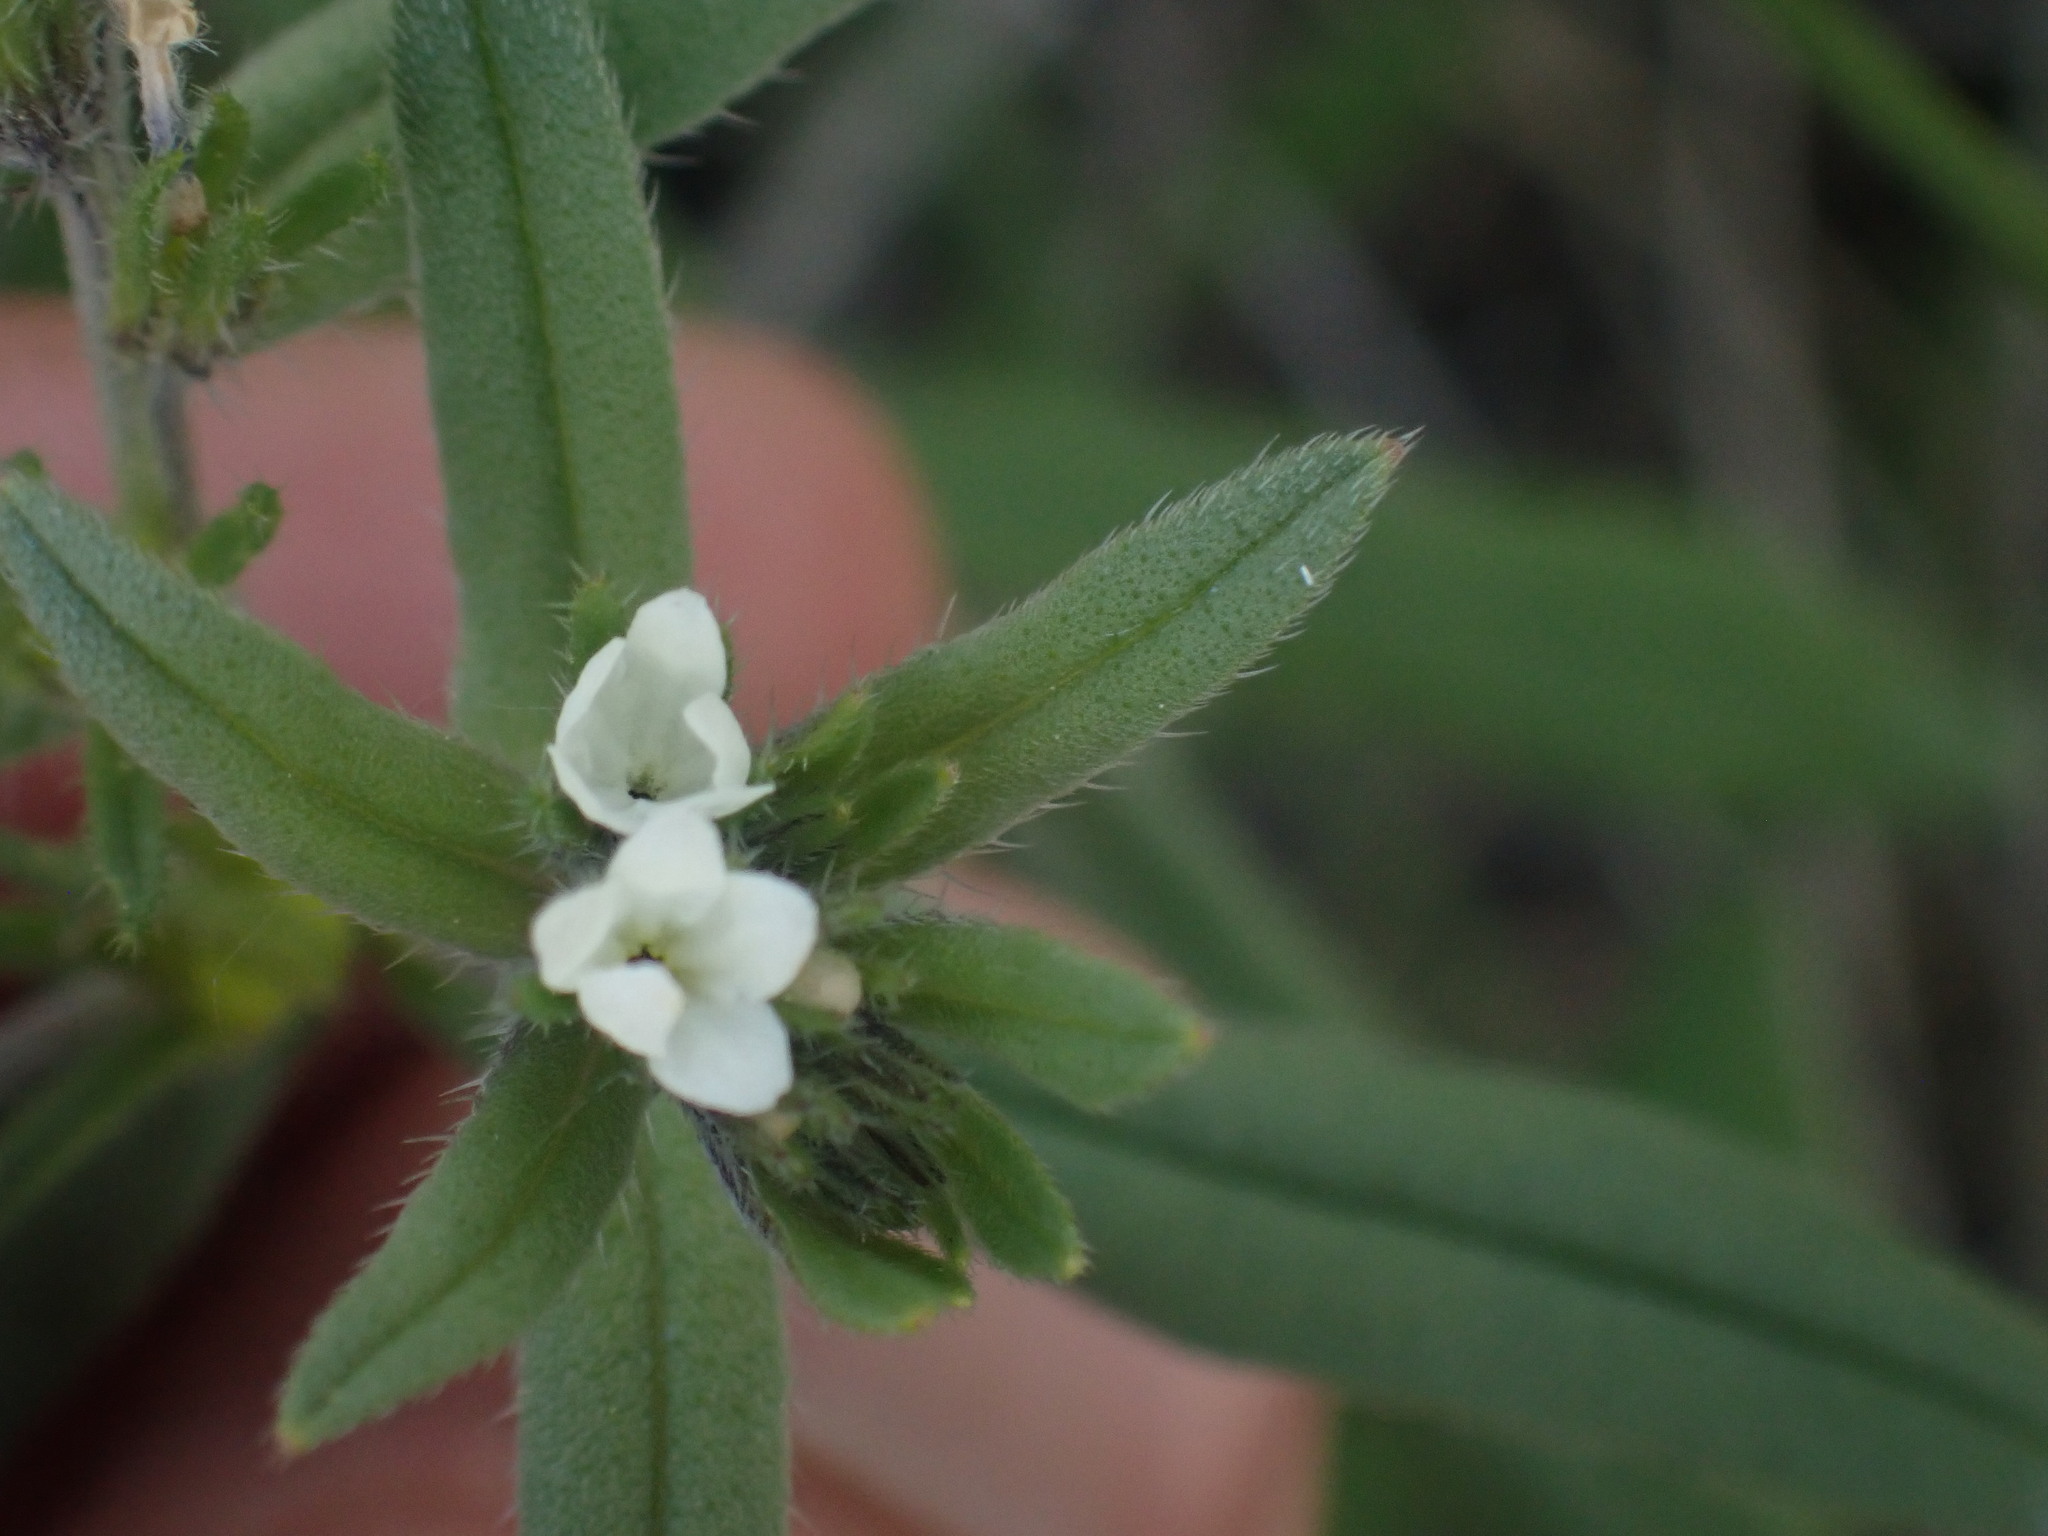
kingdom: Plantae
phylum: Tracheophyta
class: Magnoliopsida
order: Boraginales
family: Boraginaceae
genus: Buglossoides
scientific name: Buglossoides arvensis
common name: Corn gromwell
